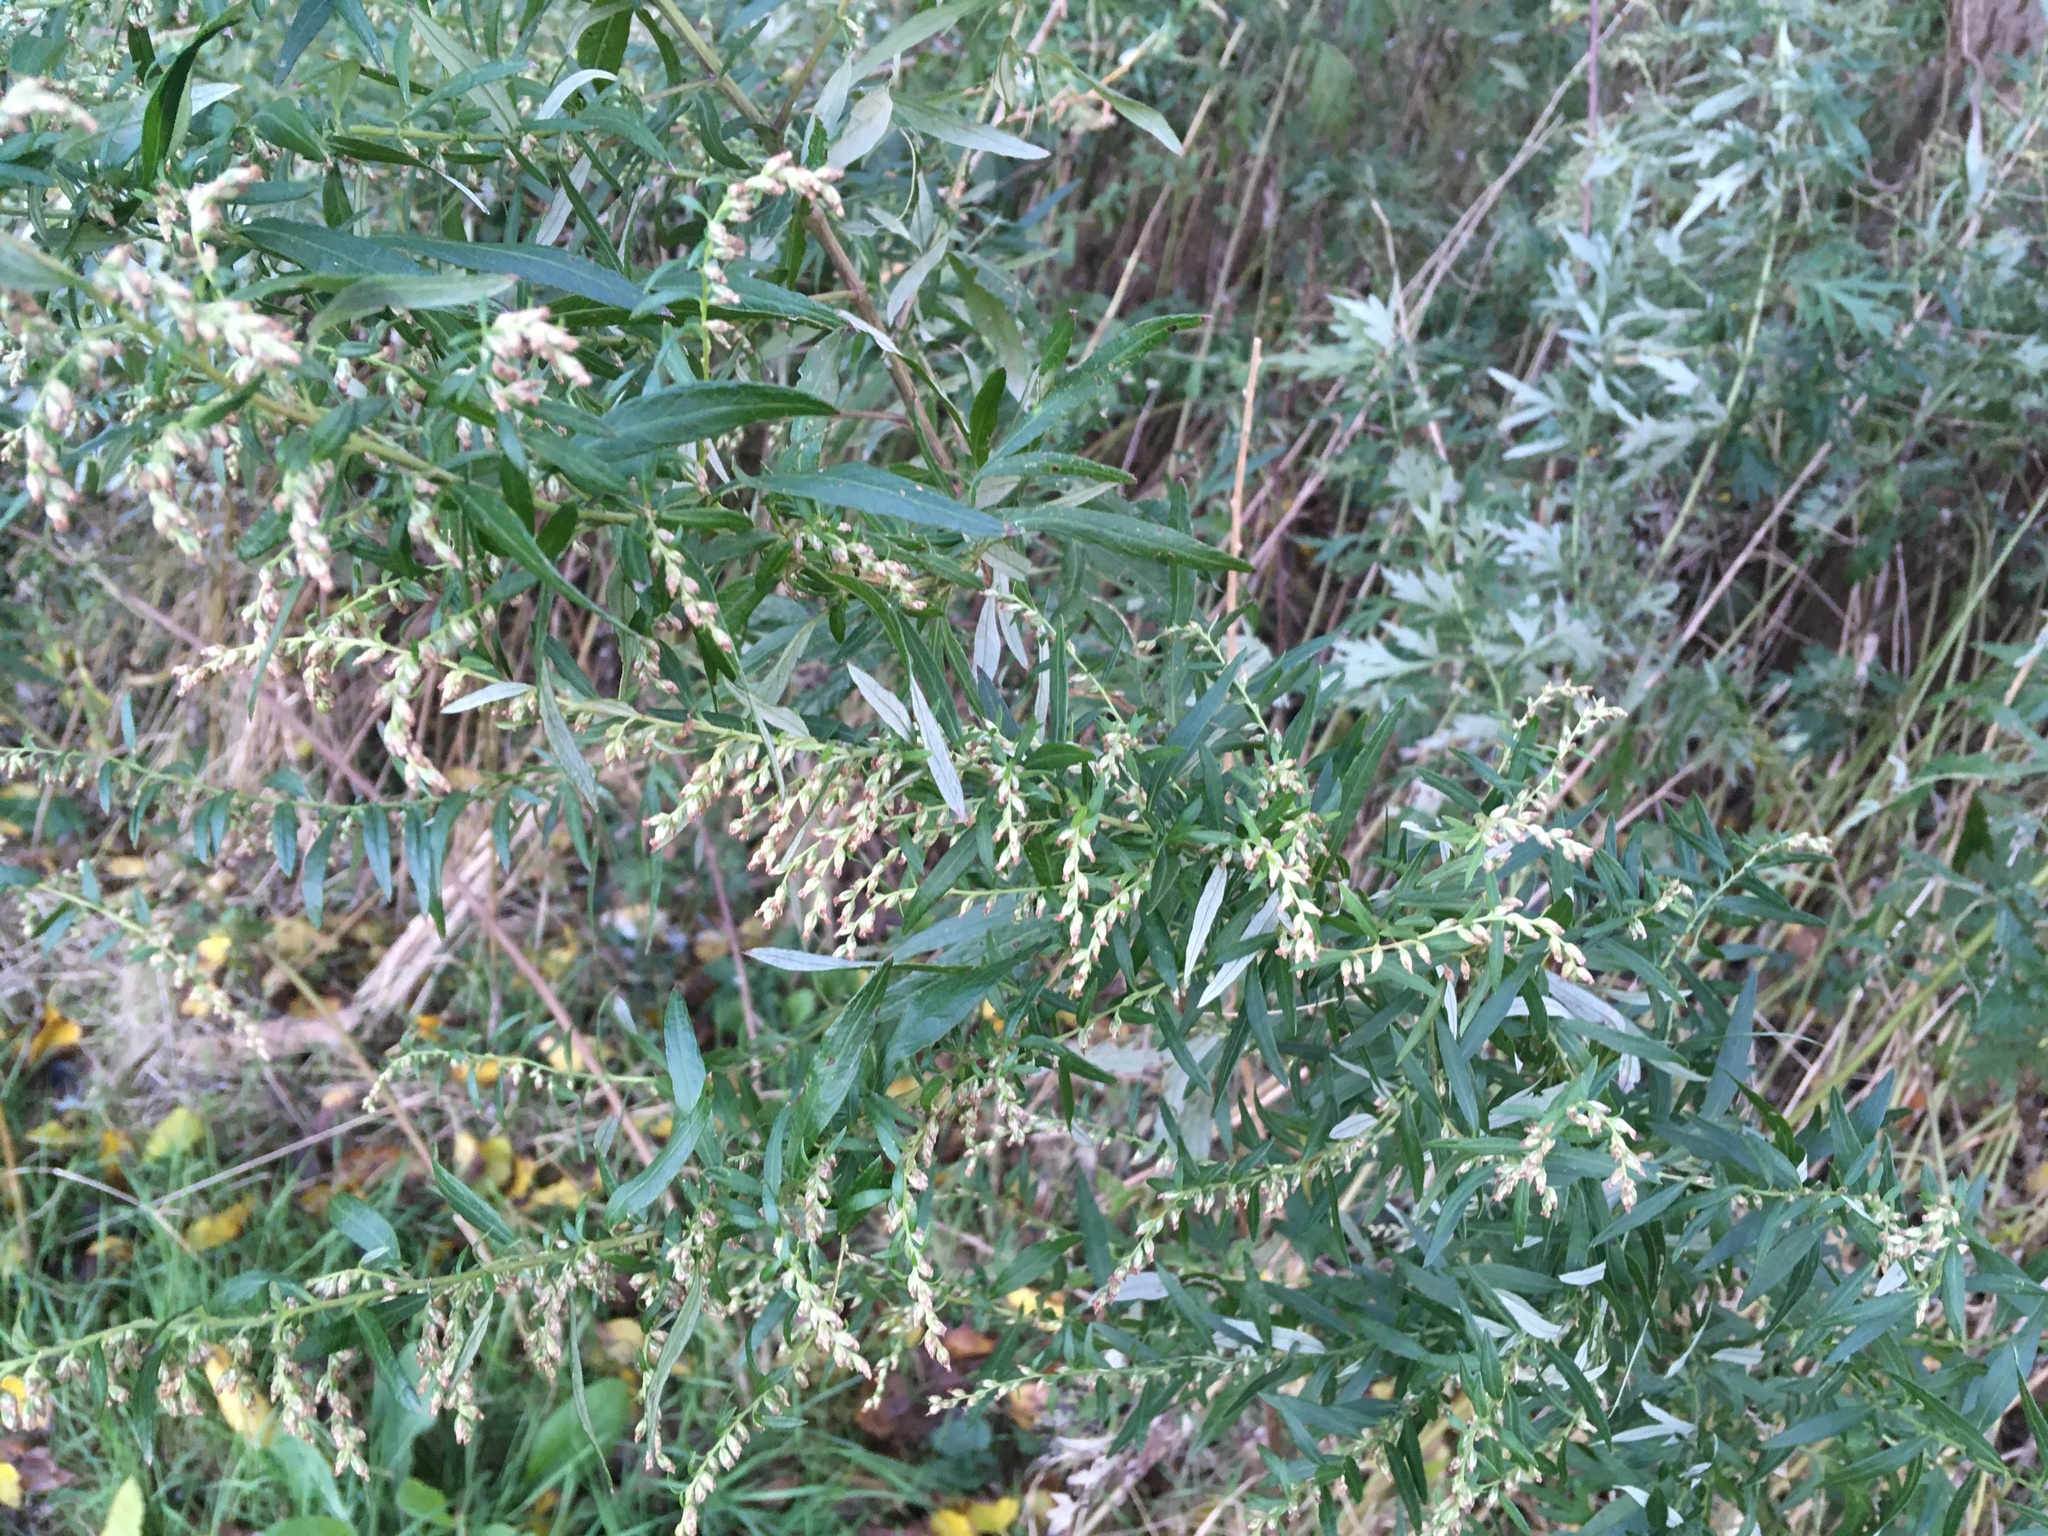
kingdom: Plantae
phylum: Tracheophyta
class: Magnoliopsida
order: Asterales
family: Asteraceae
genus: Artemisia
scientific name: Artemisia vulgaris
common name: Mugwort
